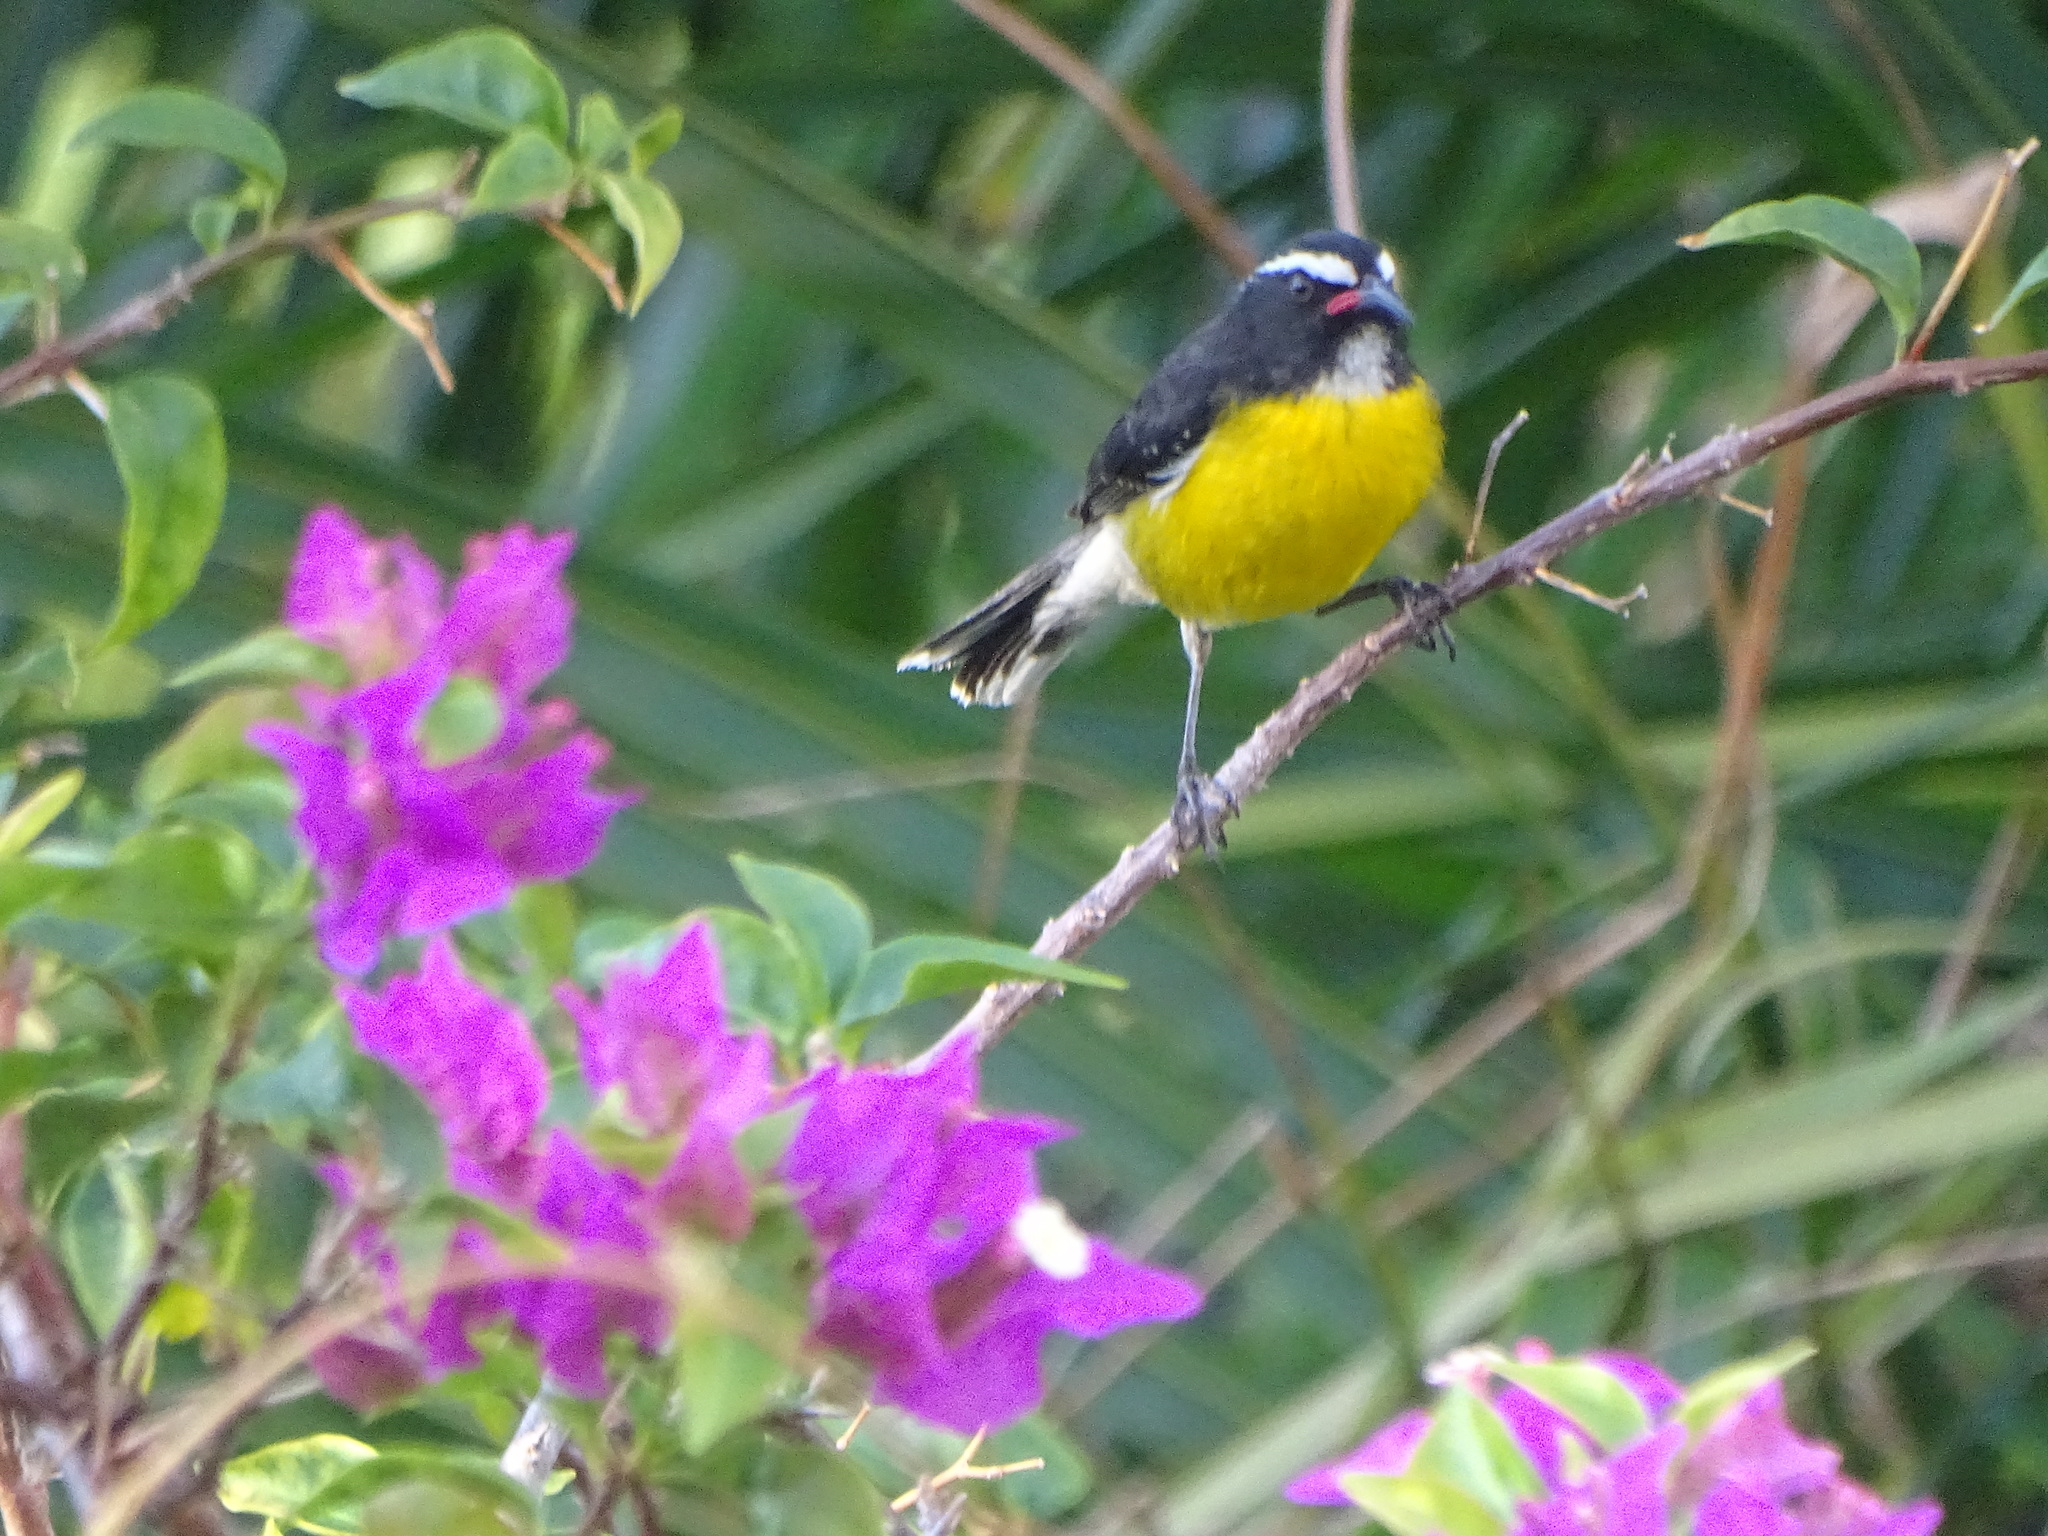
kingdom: Animalia
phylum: Chordata
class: Aves
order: Passeriformes
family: Thraupidae
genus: Coereba
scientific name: Coereba flaveola
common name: Bananaquit
